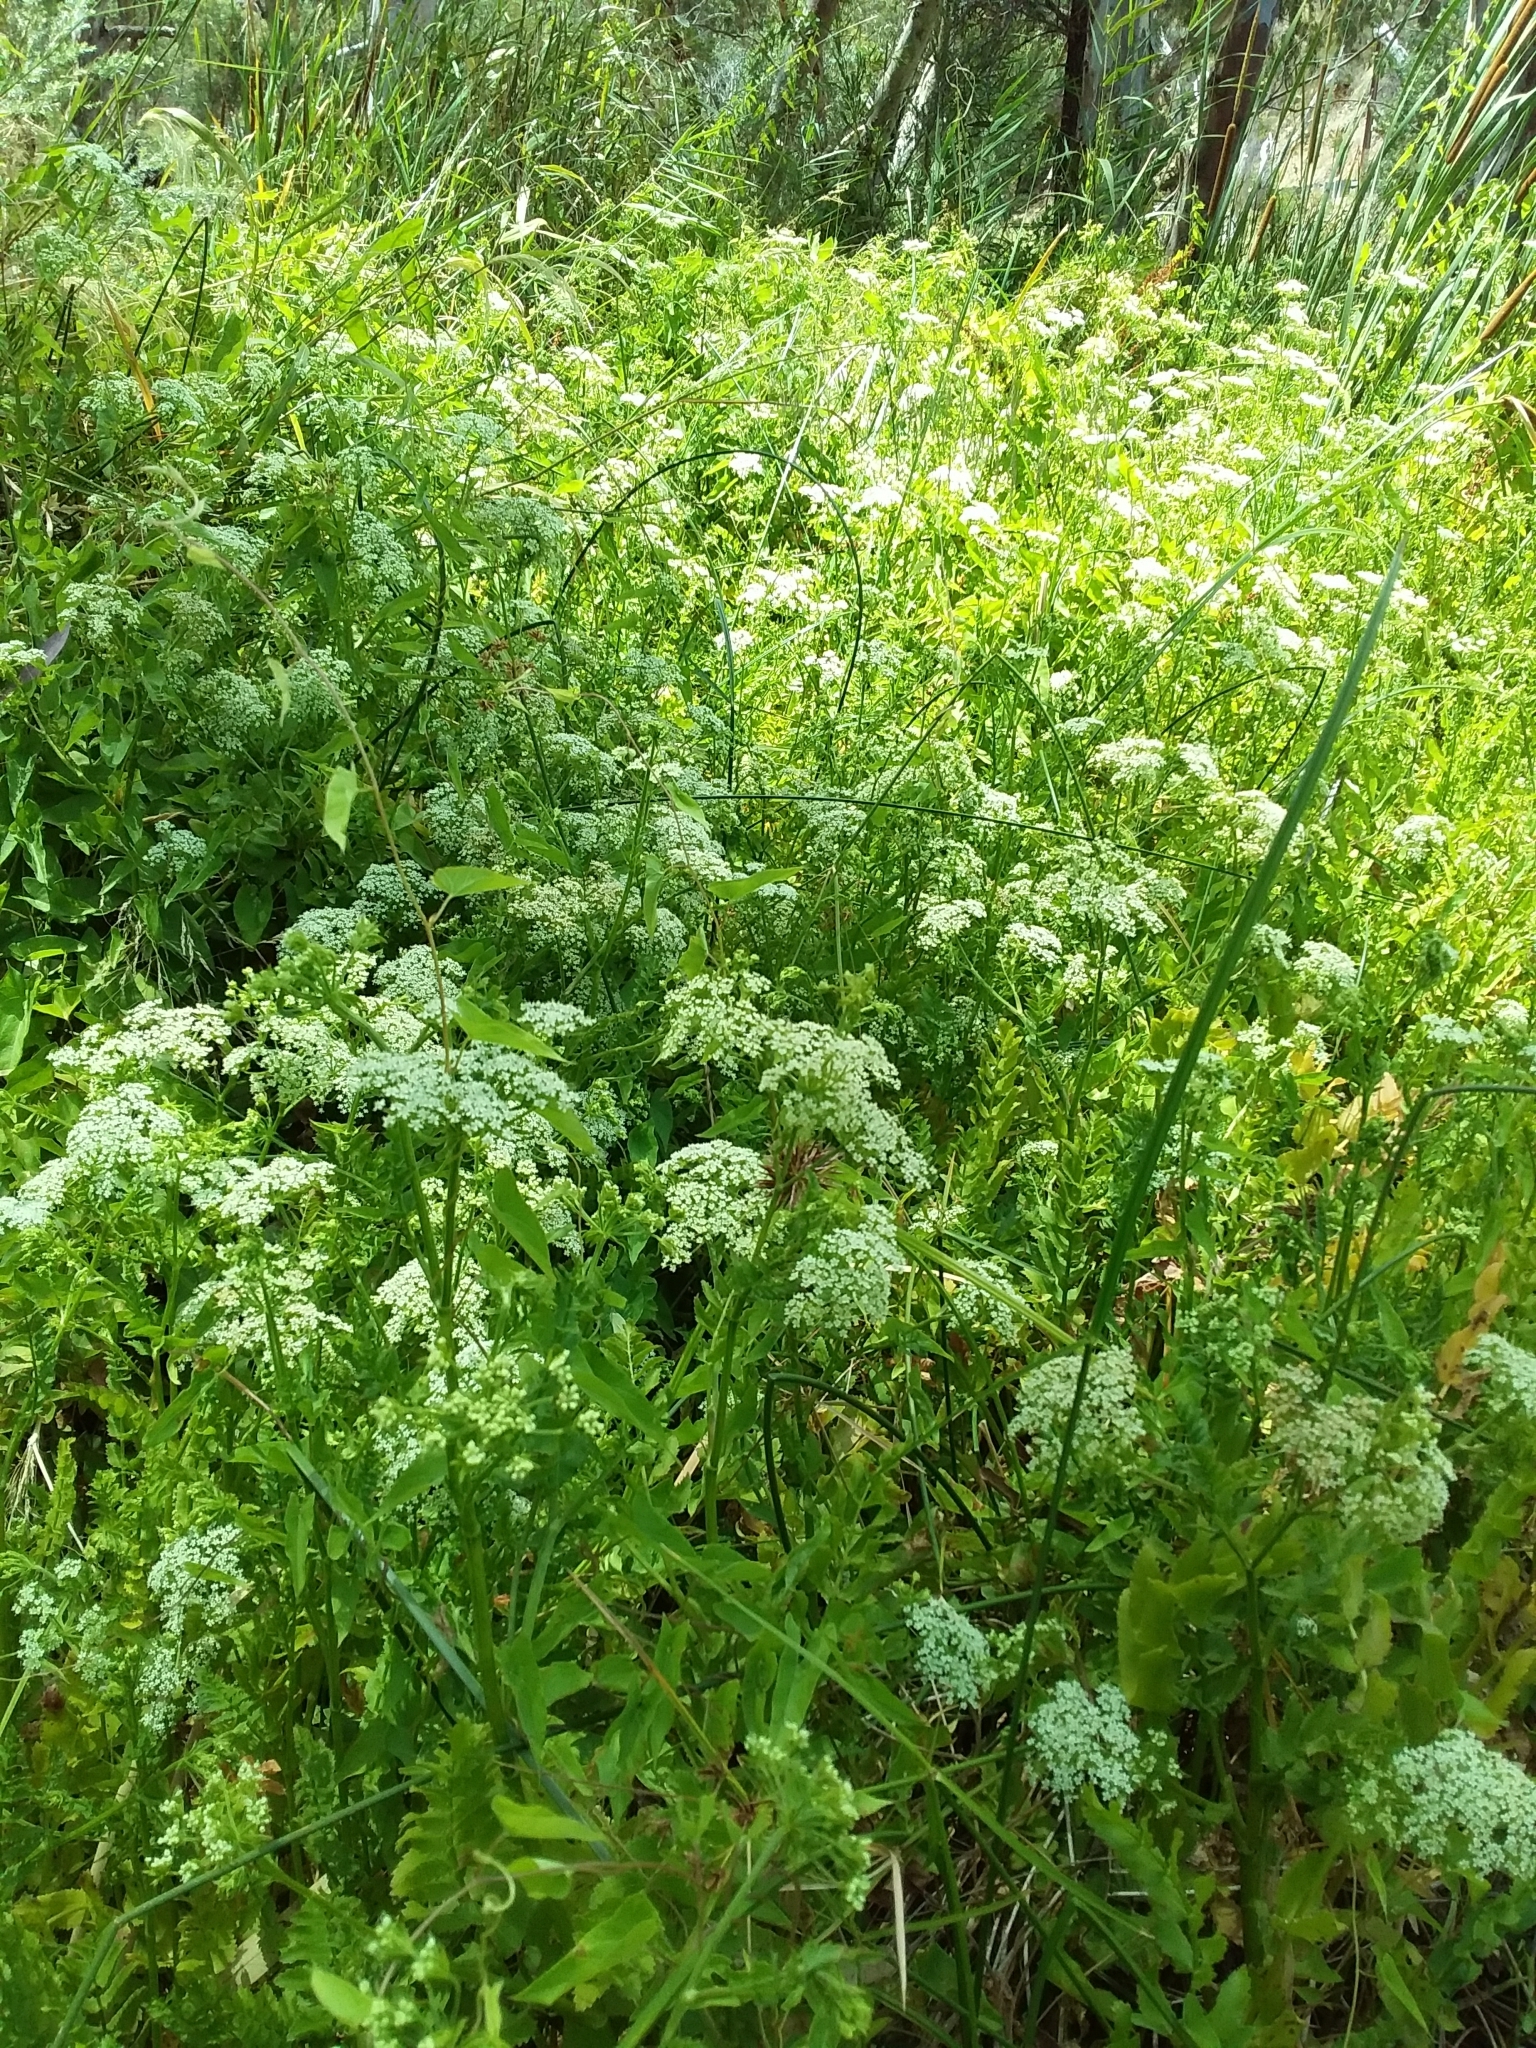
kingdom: Plantae
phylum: Tracheophyta
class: Magnoliopsida
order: Apiales
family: Apiaceae
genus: Berula
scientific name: Berula erecta
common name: Lesser water-parsnip
